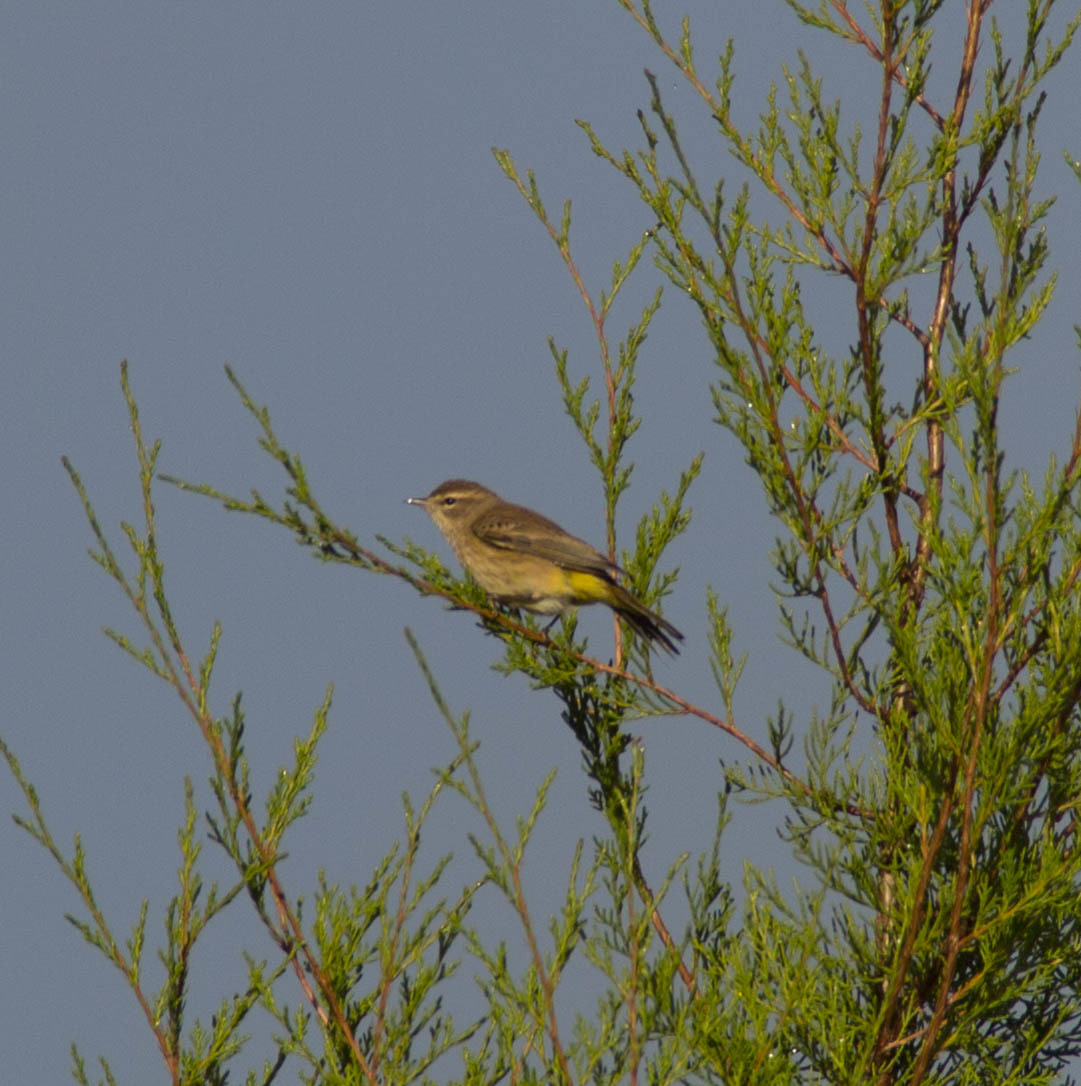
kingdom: Animalia
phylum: Chordata
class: Aves
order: Passeriformes
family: Parulidae
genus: Setophaga
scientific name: Setophaga palmarum
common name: Palm warbler
